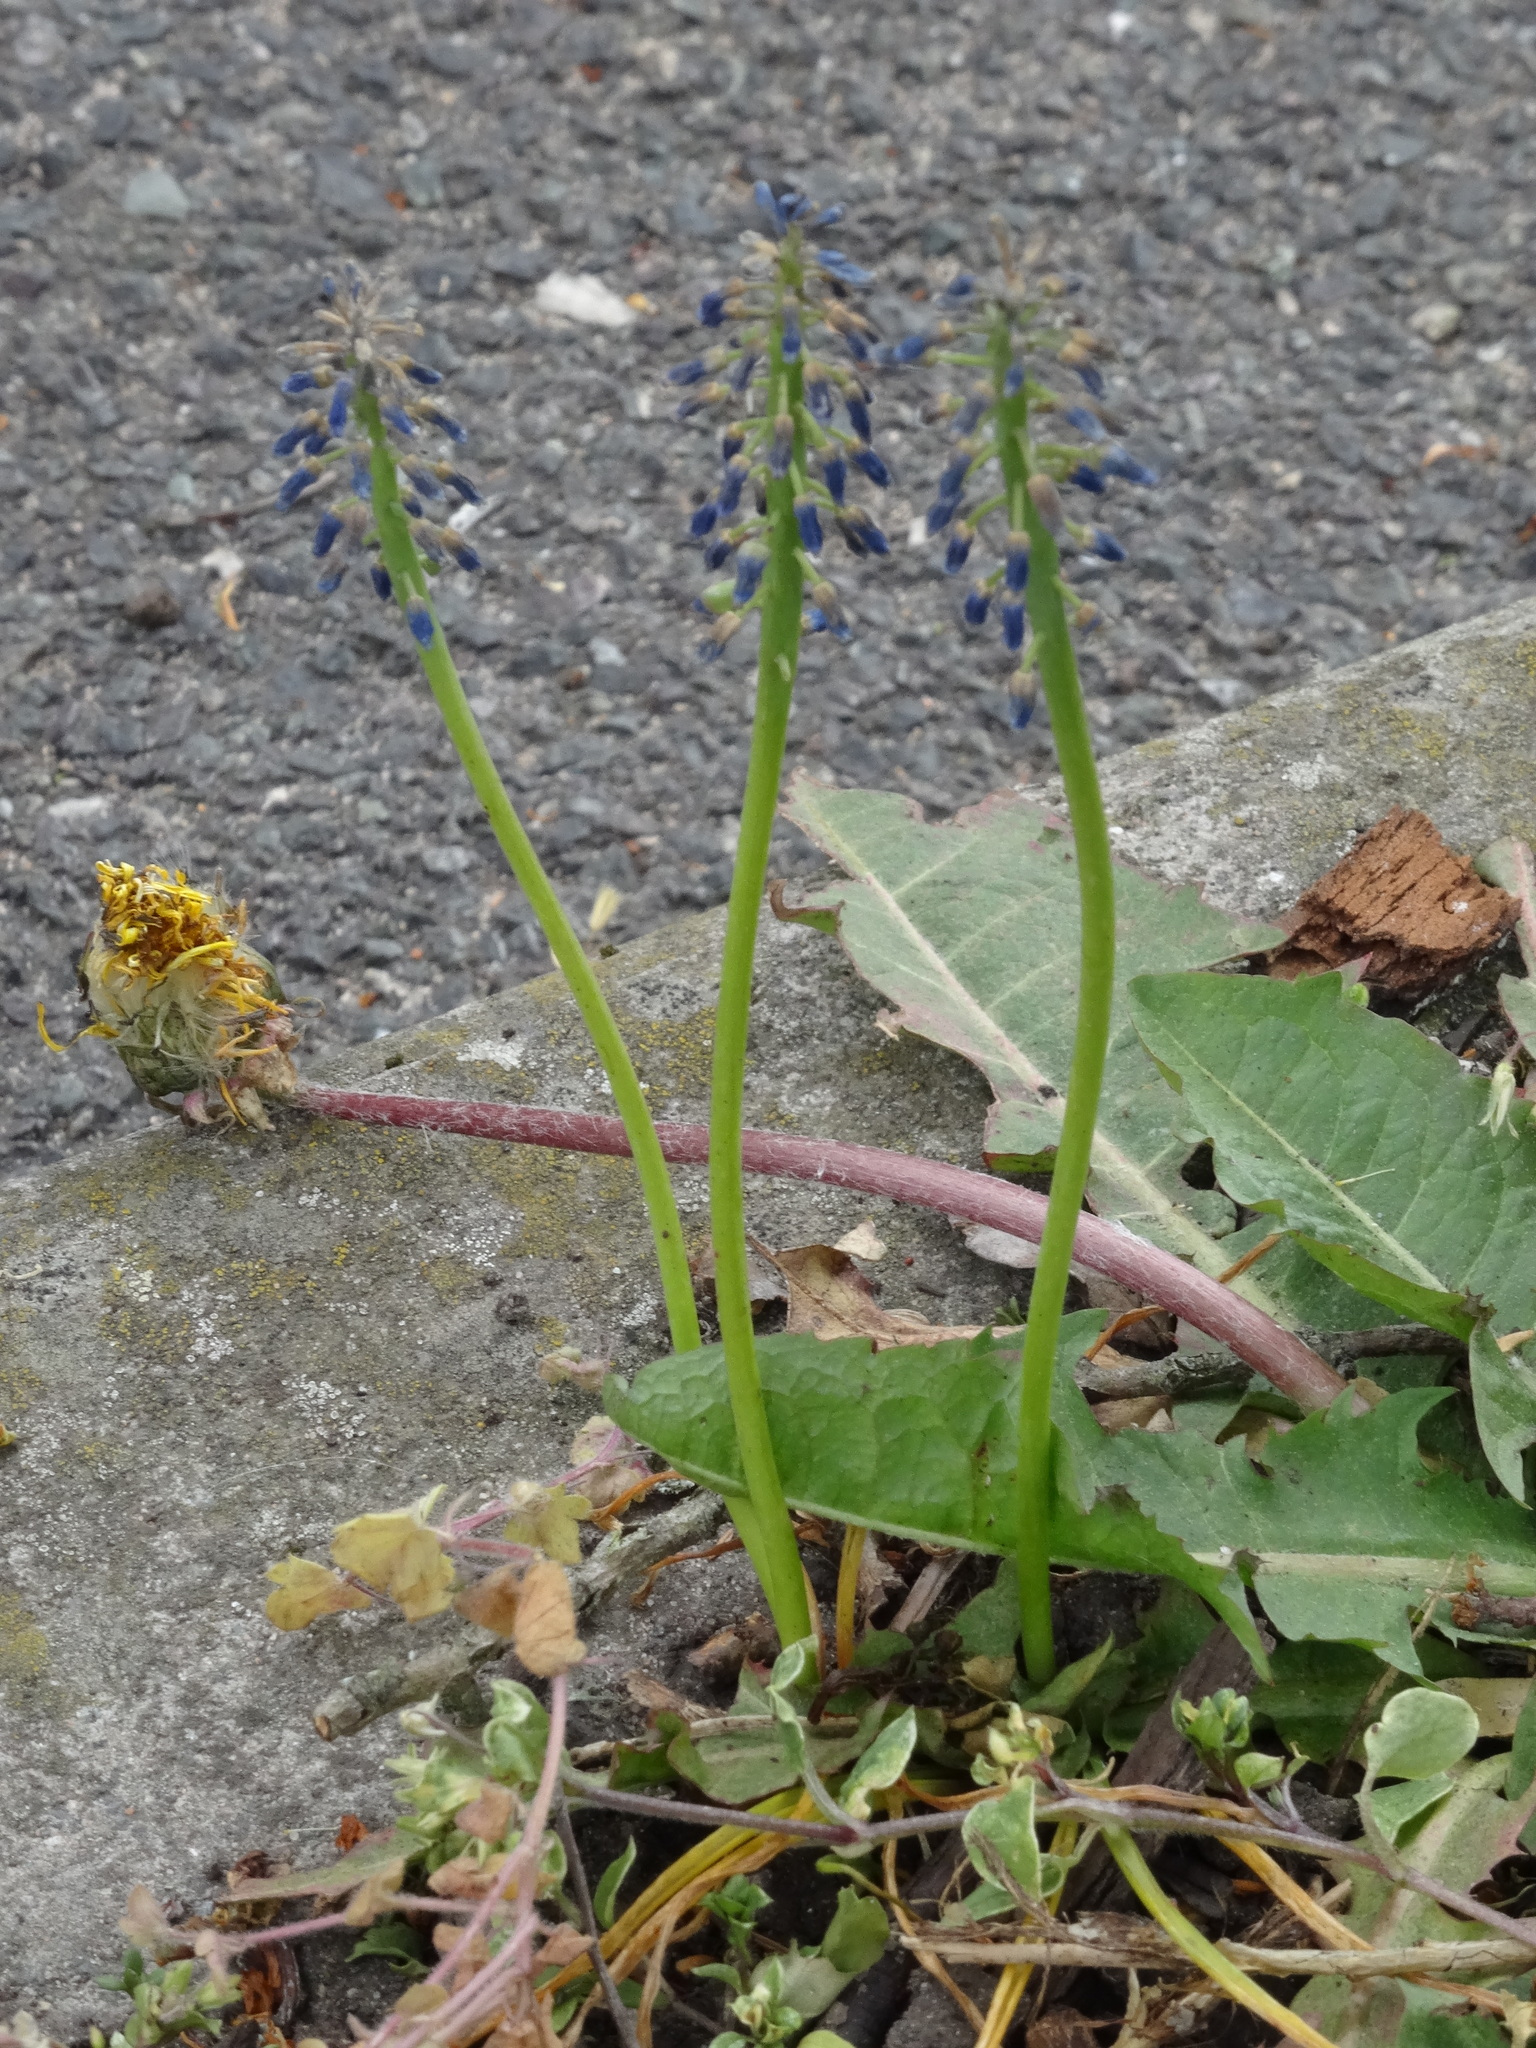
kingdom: Plantae
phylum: Tracheophyta
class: Liliopsida
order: Asparagales
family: Asparagaceae
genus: Muscari
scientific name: Muscari armeniacum
